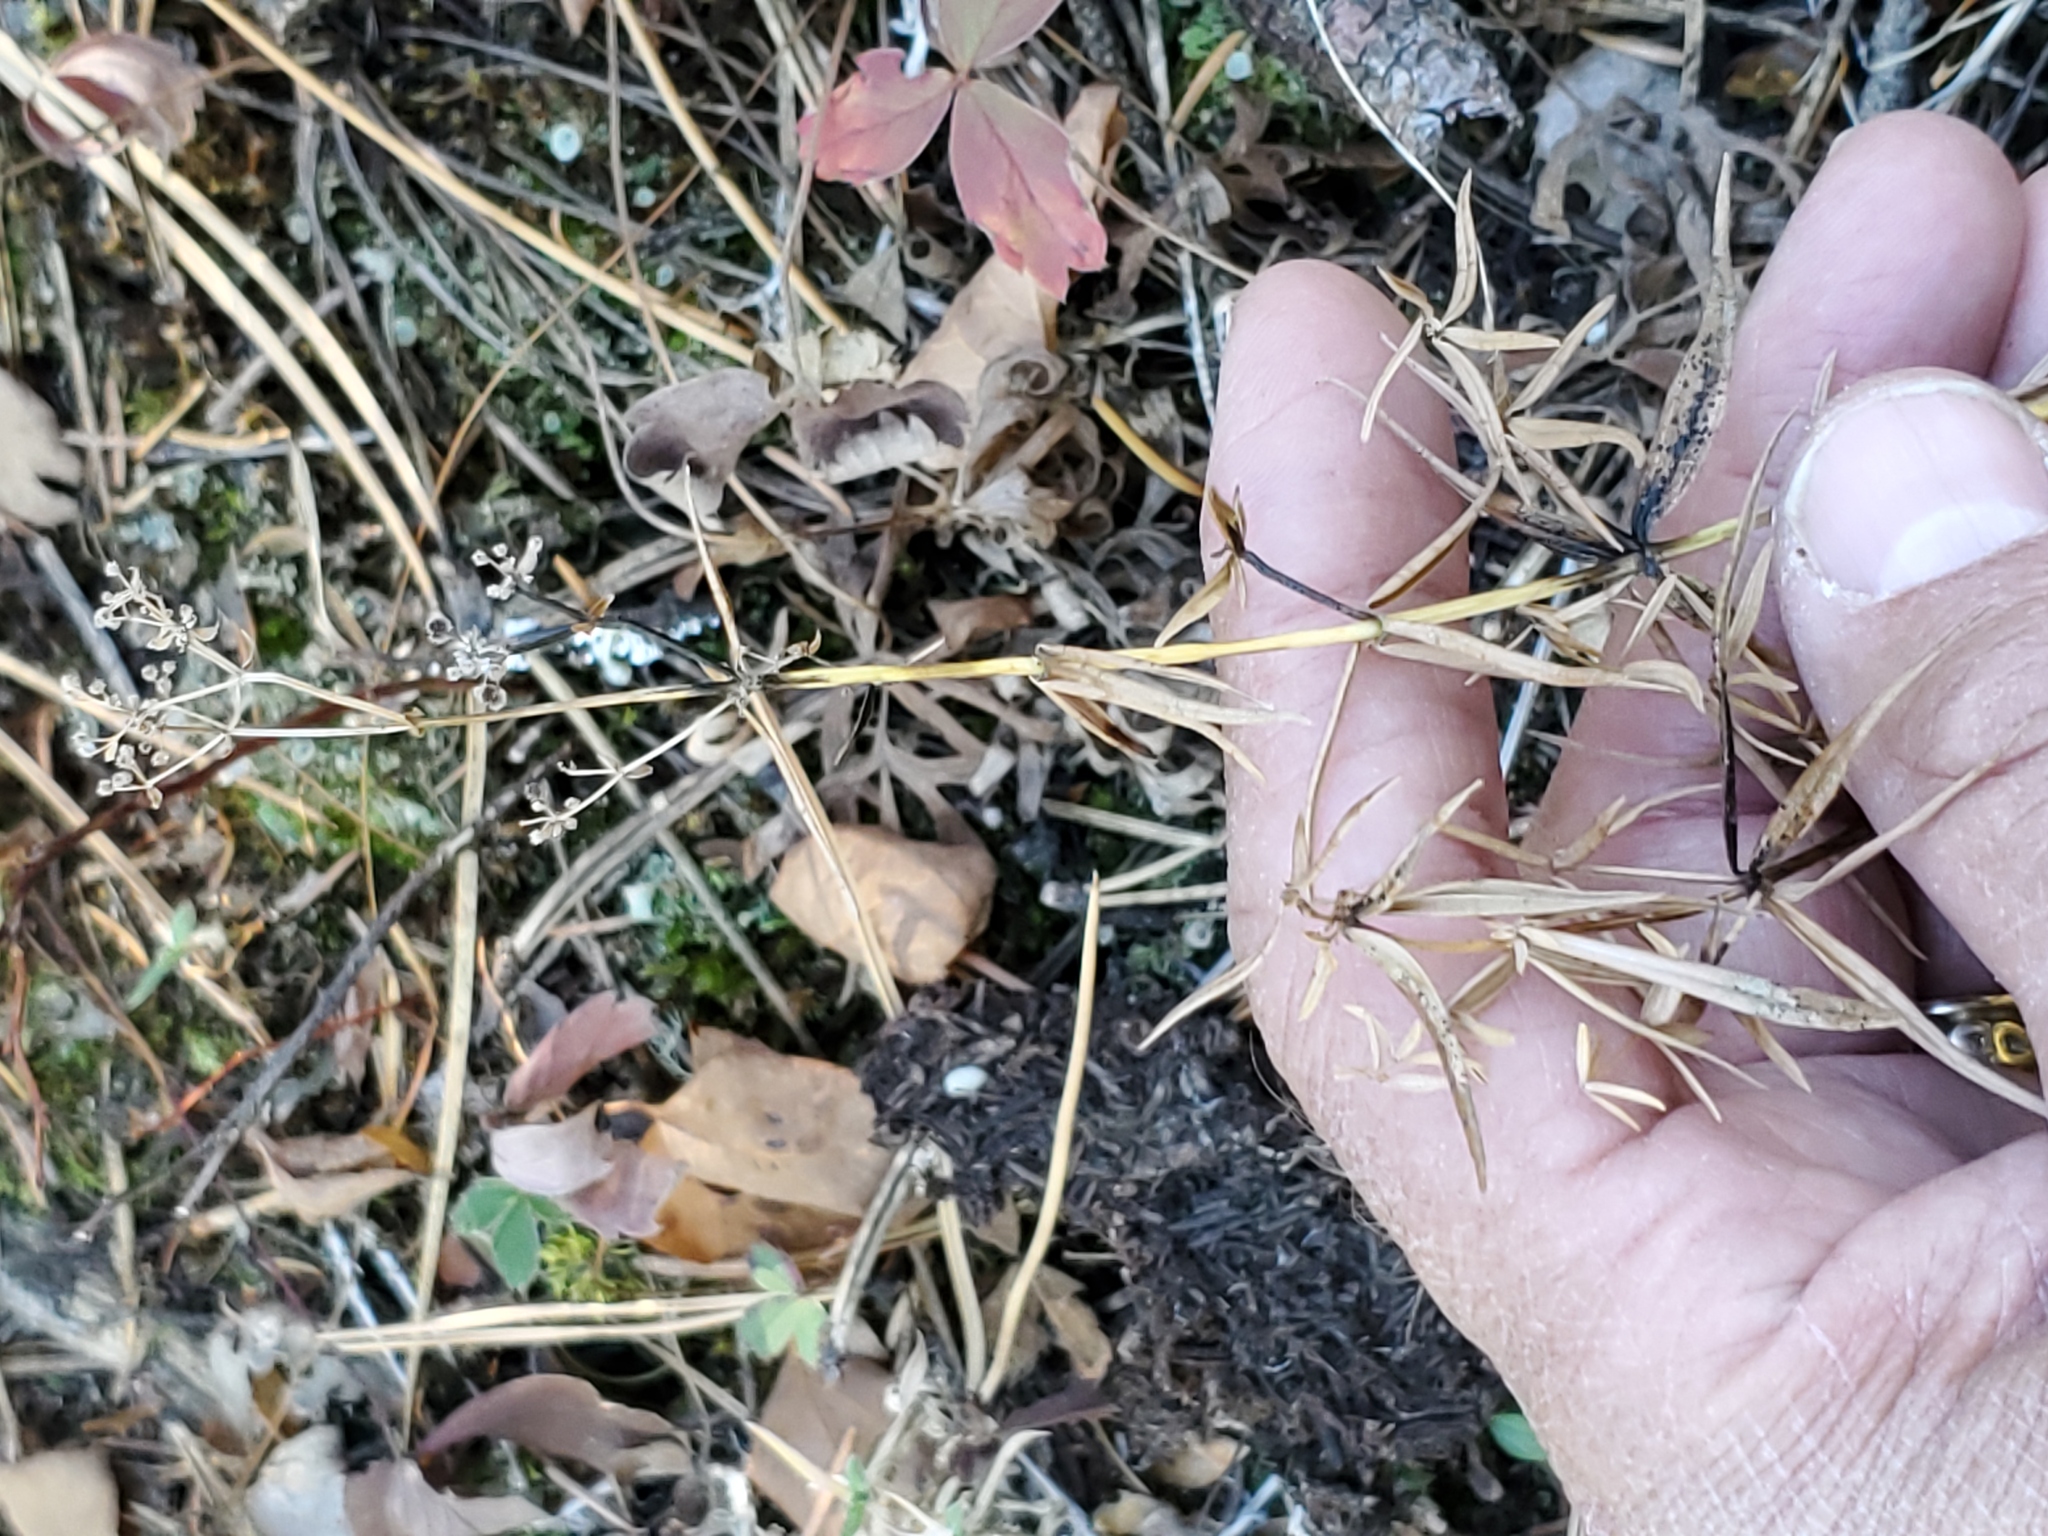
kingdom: Plantae
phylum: Tracheophyta
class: Magnoliopsida
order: Gentianales
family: Rubiaceae
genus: Galium
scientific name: Galium boreale
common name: Northern bedstraw
